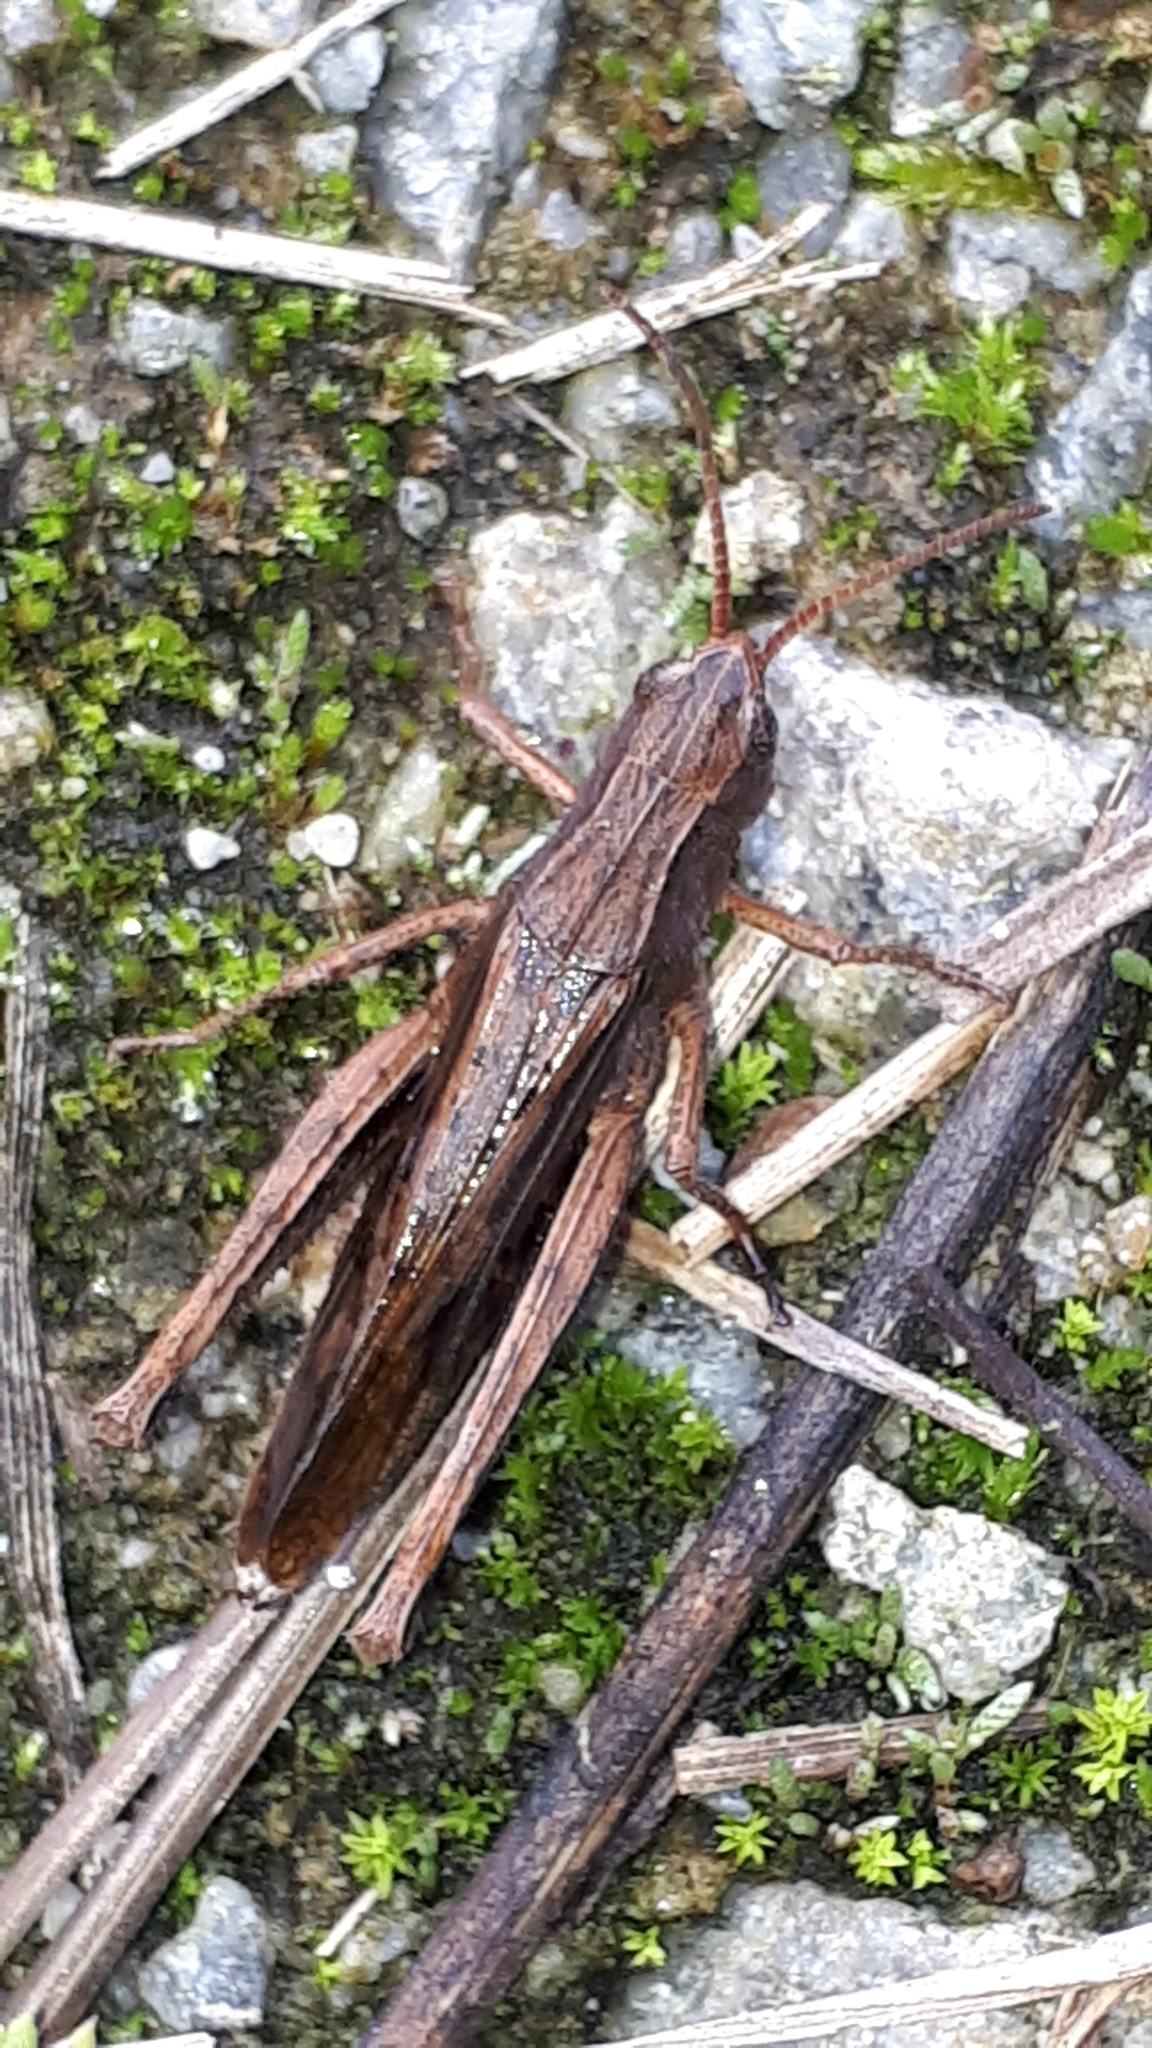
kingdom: Animalia
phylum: Arthropoda
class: Insecta
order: Orthoptera
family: Acrididae
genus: Chorthippus
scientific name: Chorthippus dorsatus
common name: Steppe grasshopper
